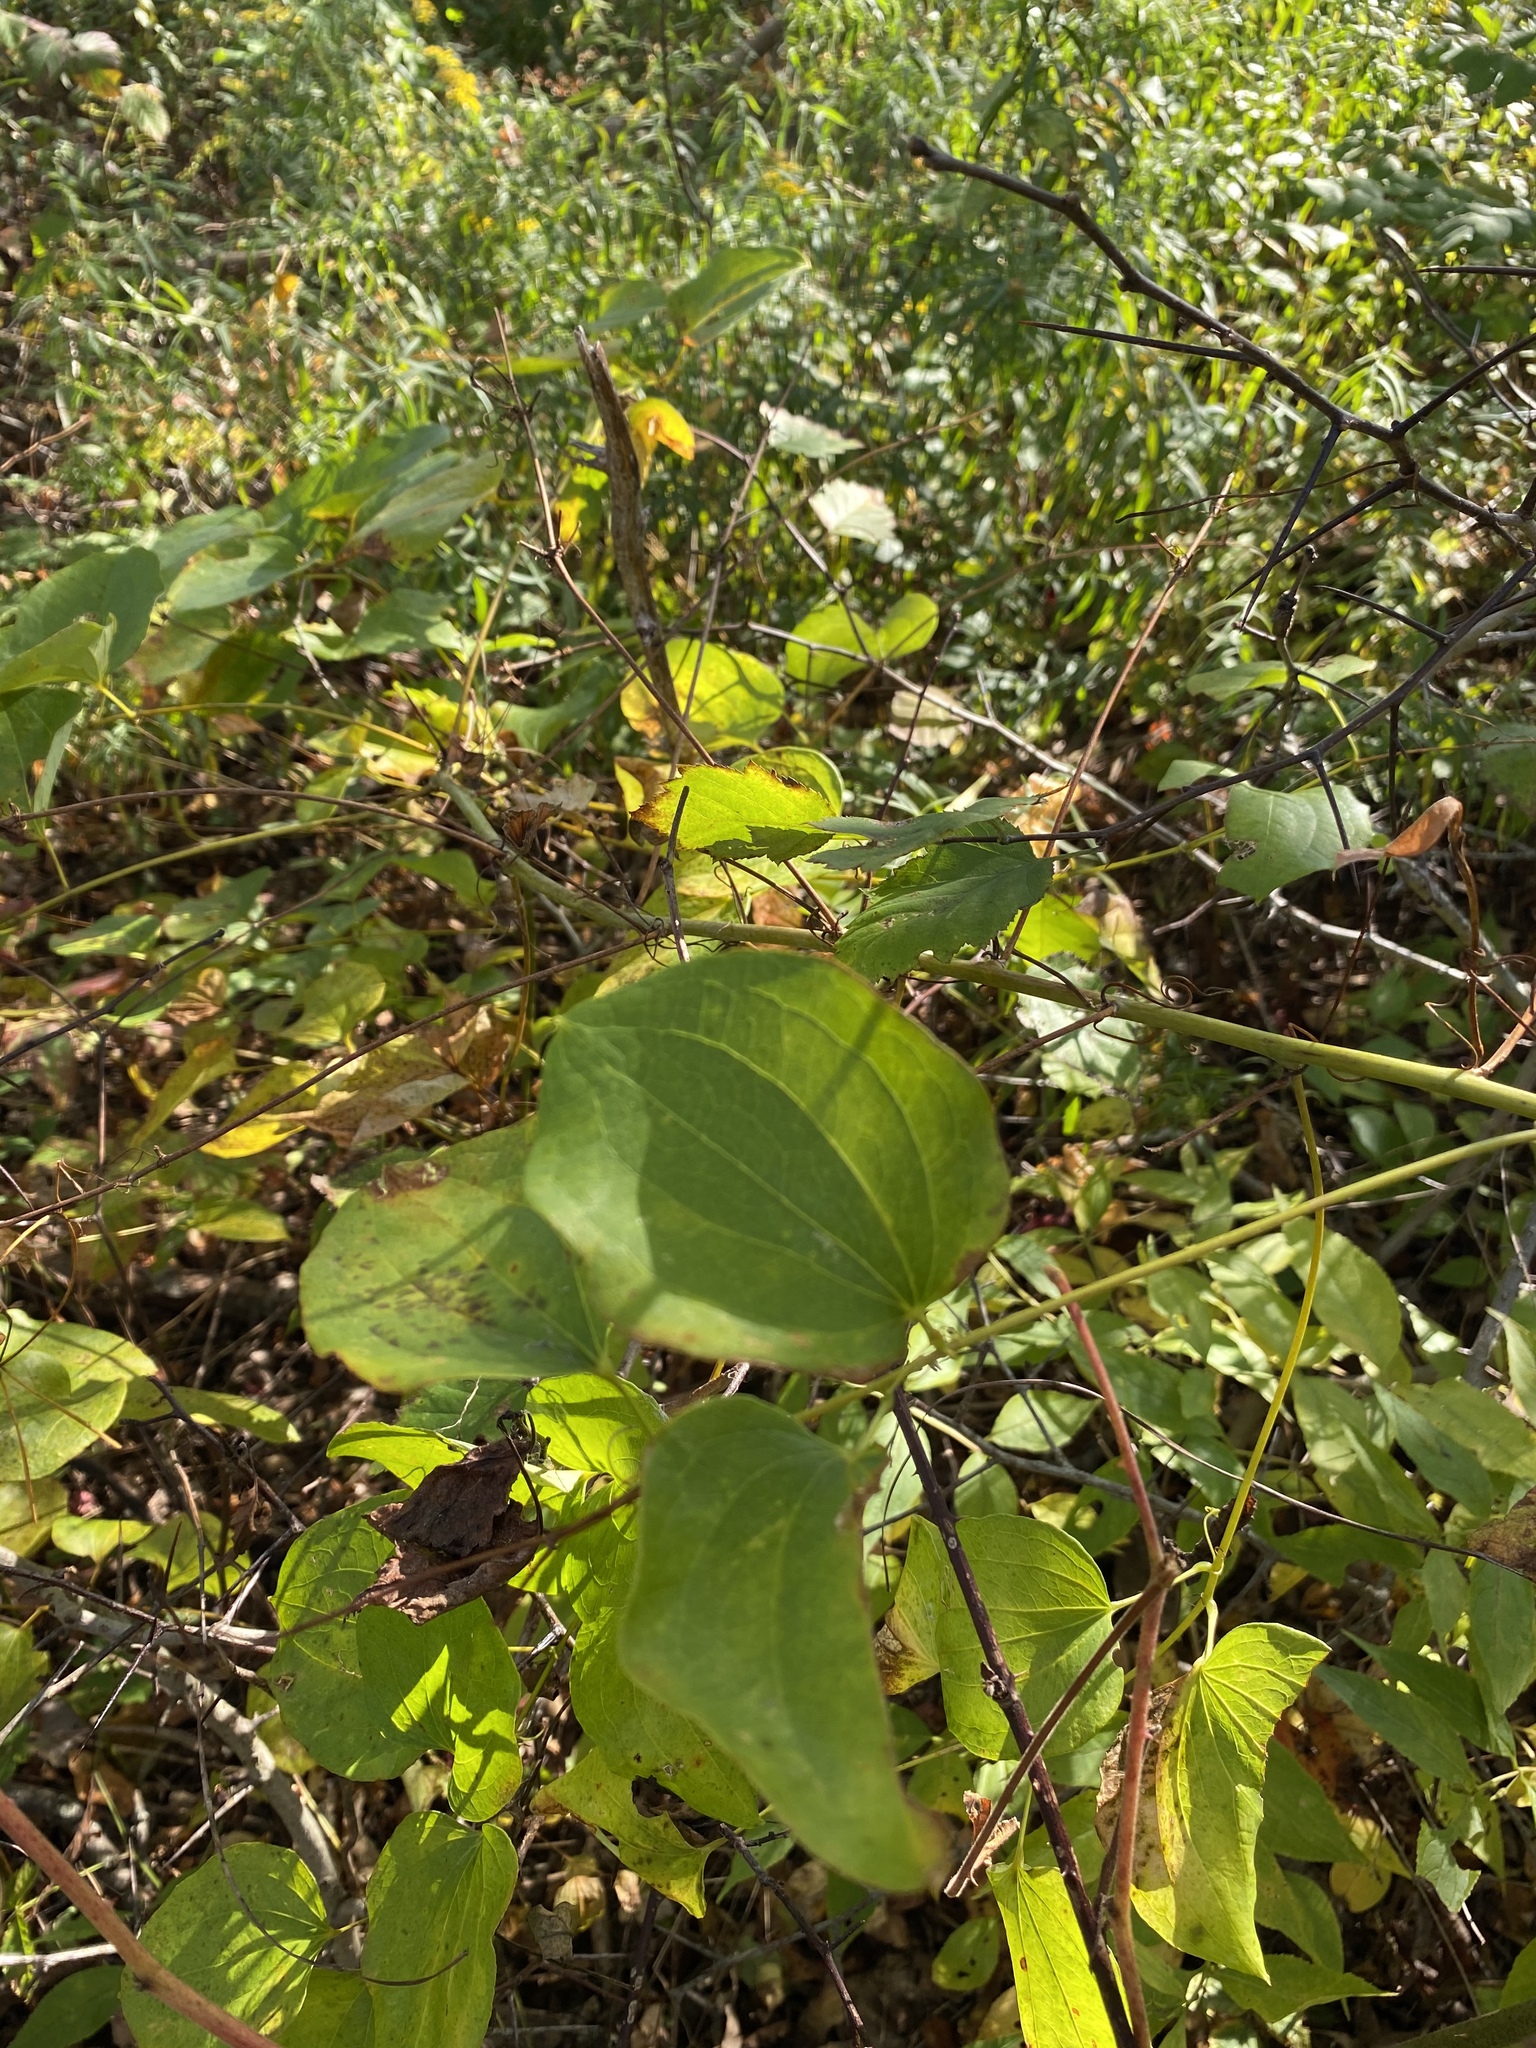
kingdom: Plantae
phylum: Tracheophyta
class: Liliopsida
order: Liliales
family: Smilacaceae
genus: Smilax
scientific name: Smilax herbacea
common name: Jacob's-ladder
